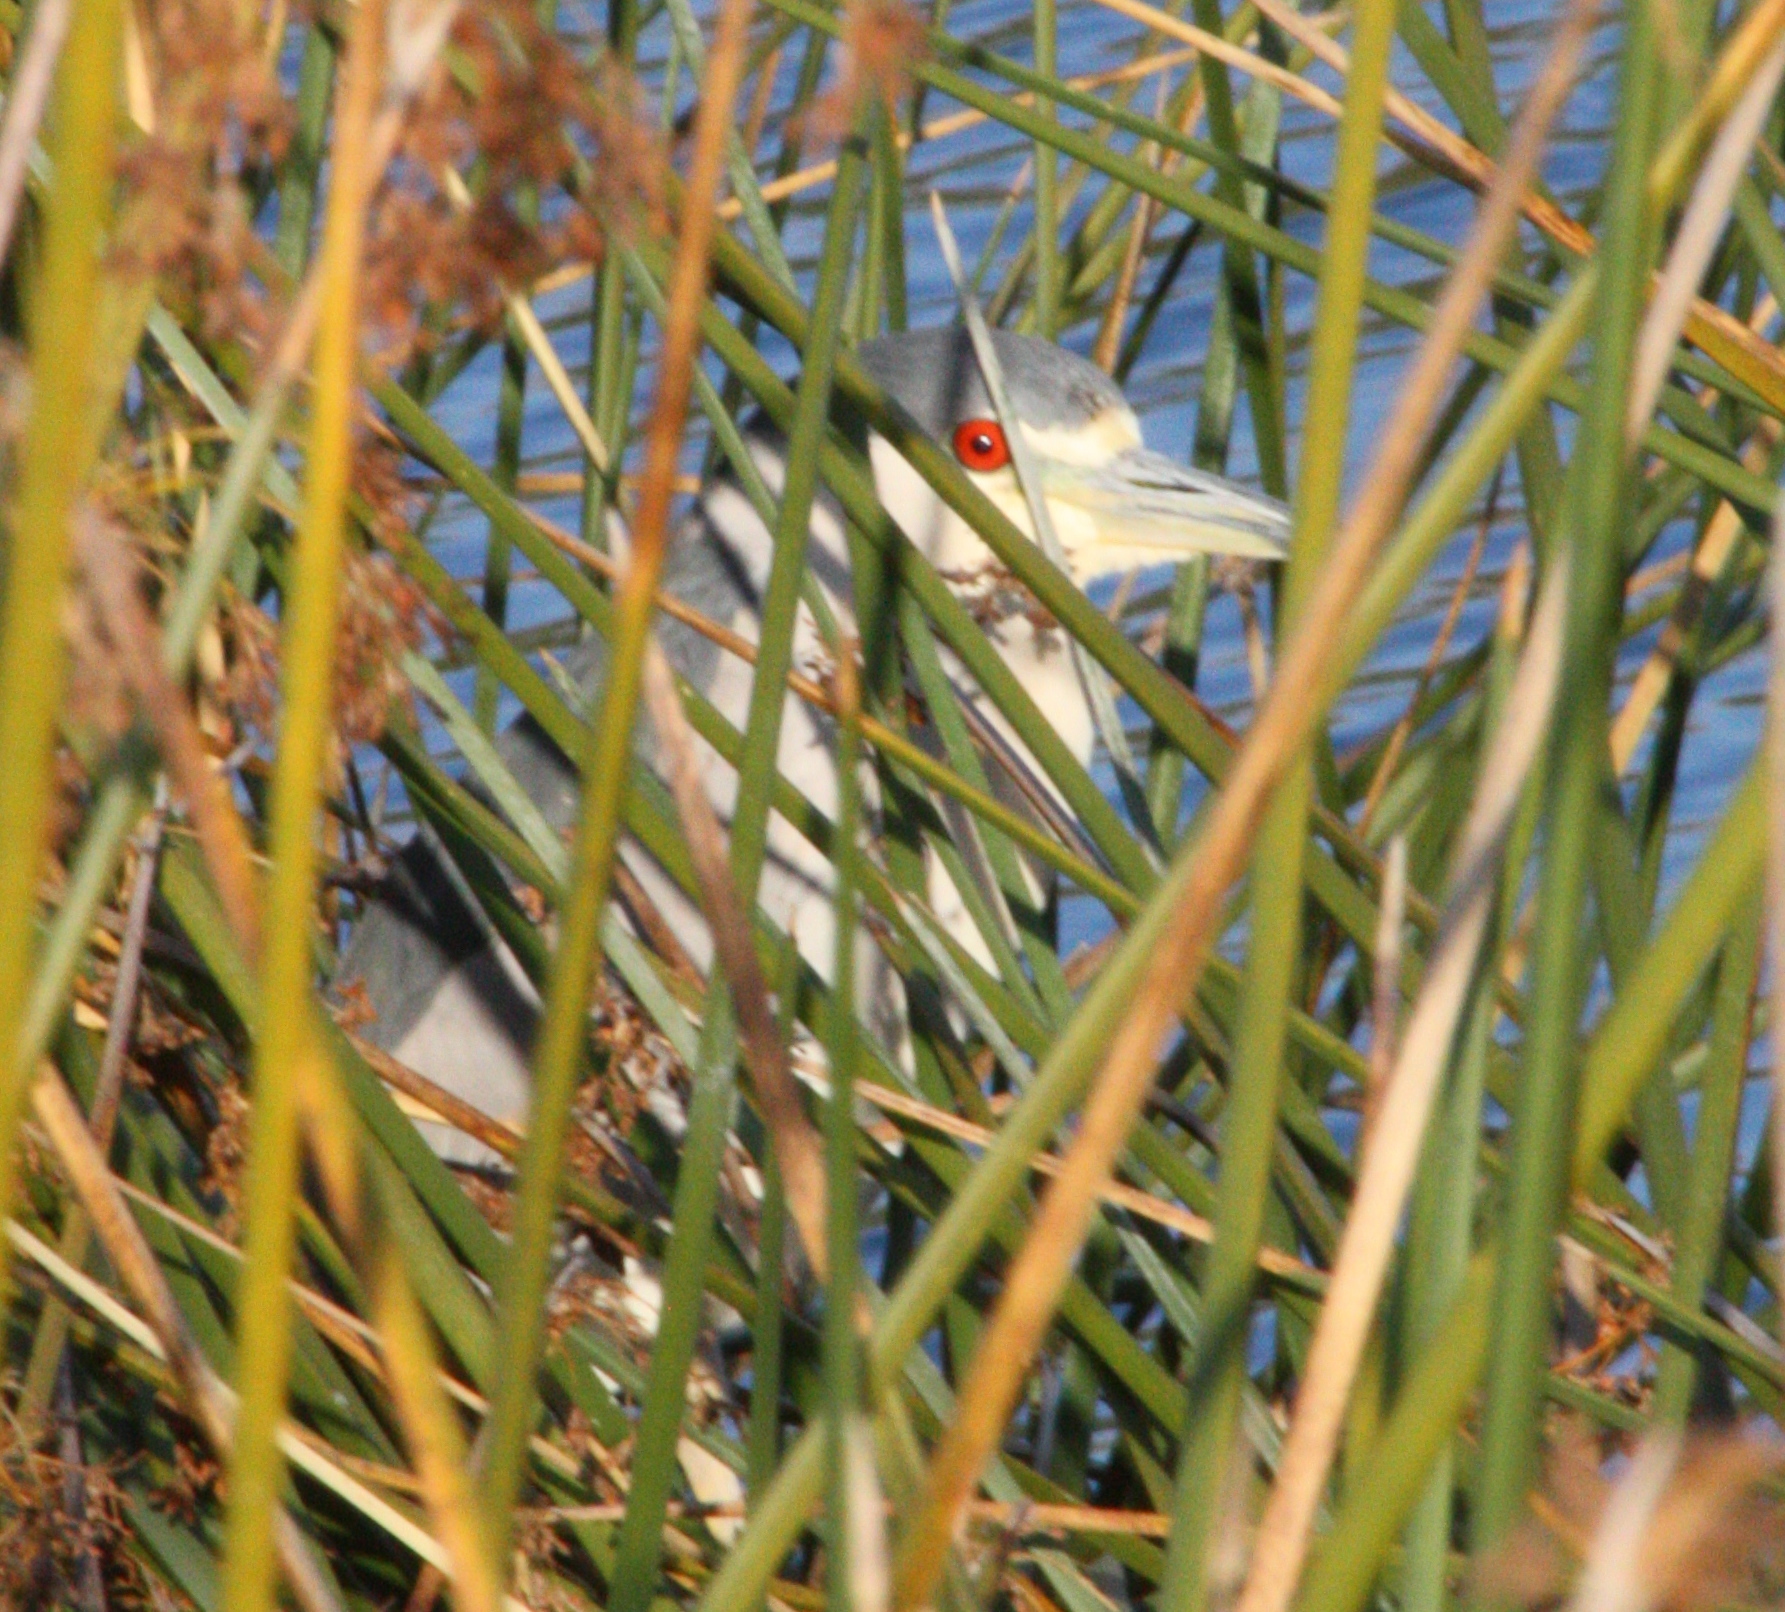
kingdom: Animalia
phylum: Chordata
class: Aves
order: Pelecaniformes
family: Ardeidae
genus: Nycticorax
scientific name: Nycticorax nycticorax
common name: Black-crowned night heron
